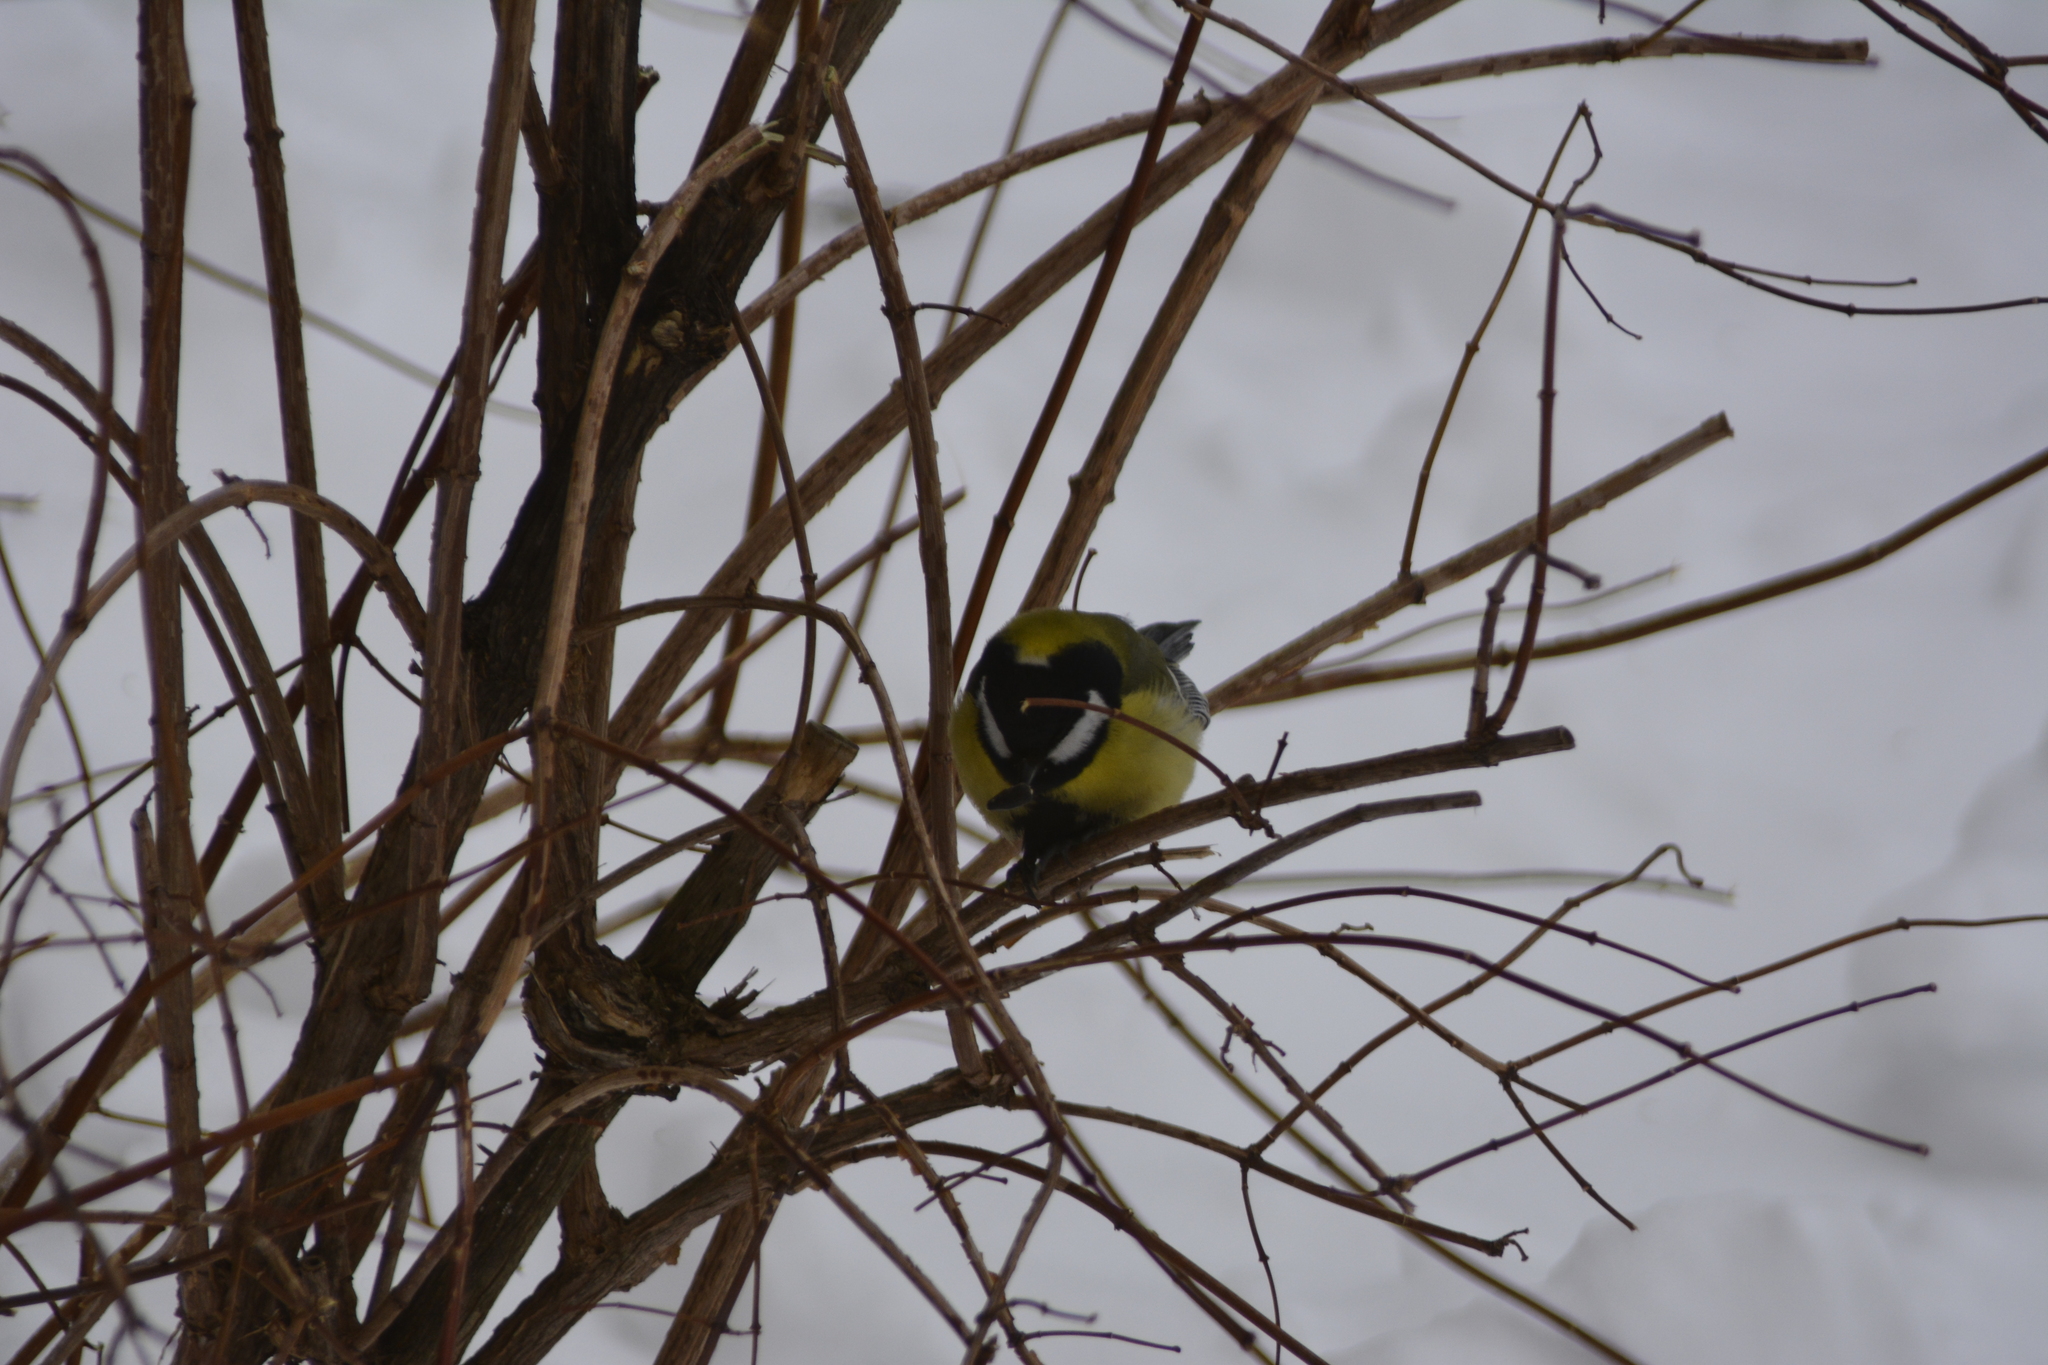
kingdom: Animalia
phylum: Chordata
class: Aves
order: Passeriformes
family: Paridae
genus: Parus
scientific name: Parus major
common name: Great tit
